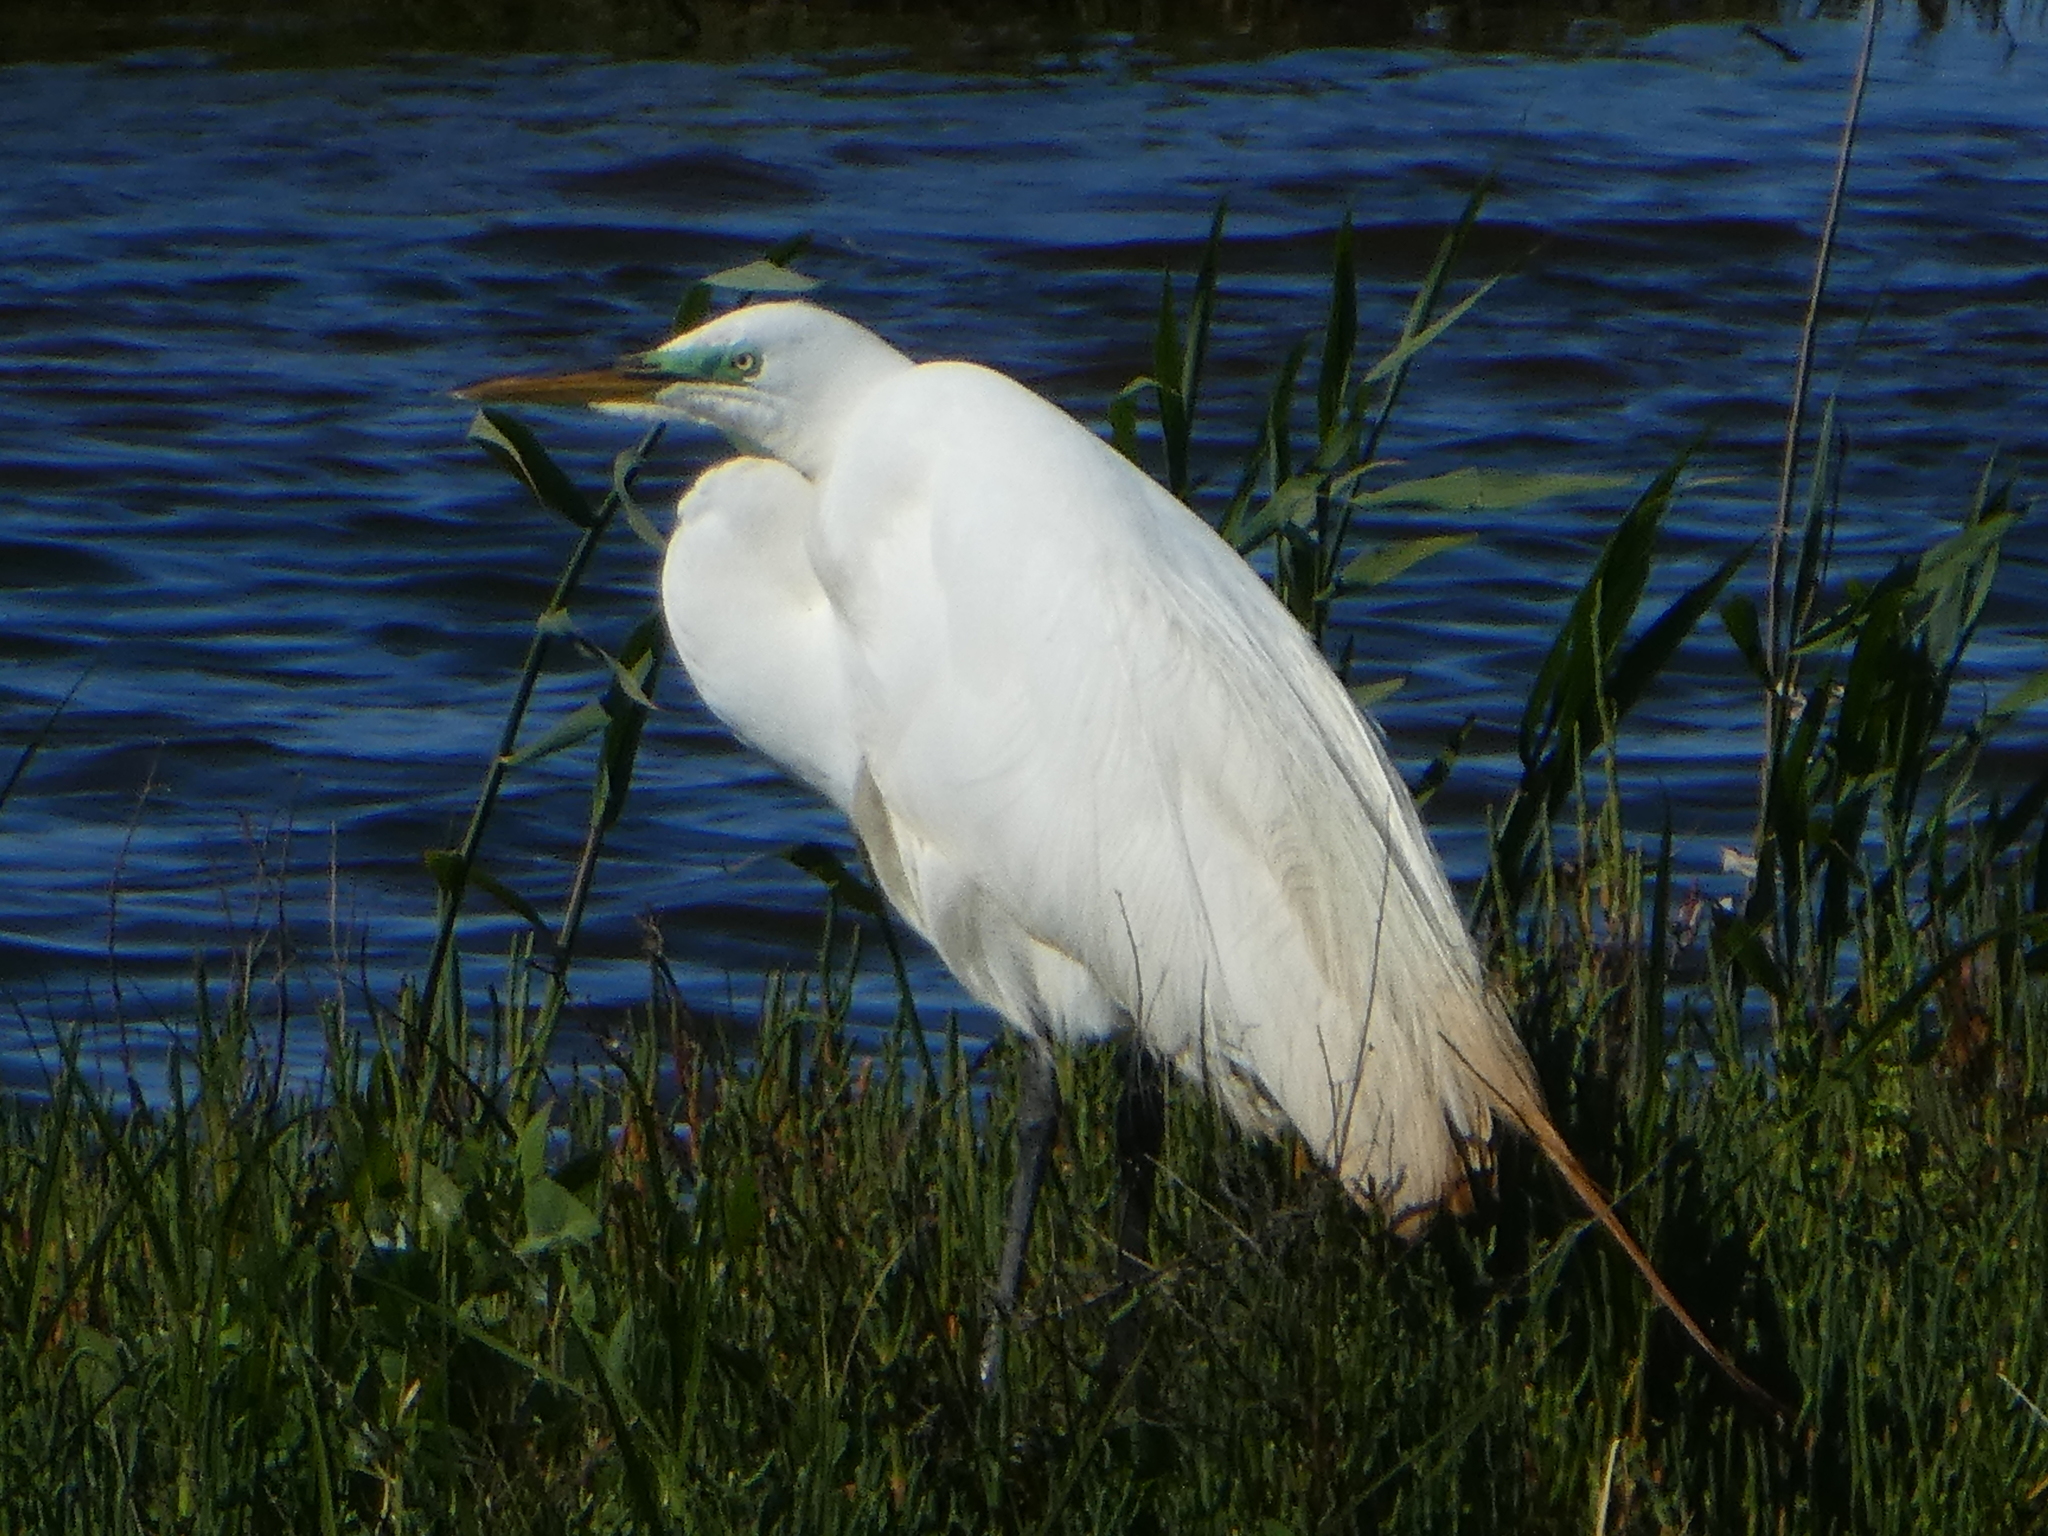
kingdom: Animalia
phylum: Chordata
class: Aves
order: Pelecaniformes
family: Ardeidae
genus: Ardea
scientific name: Ardea alba
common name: Great egret
